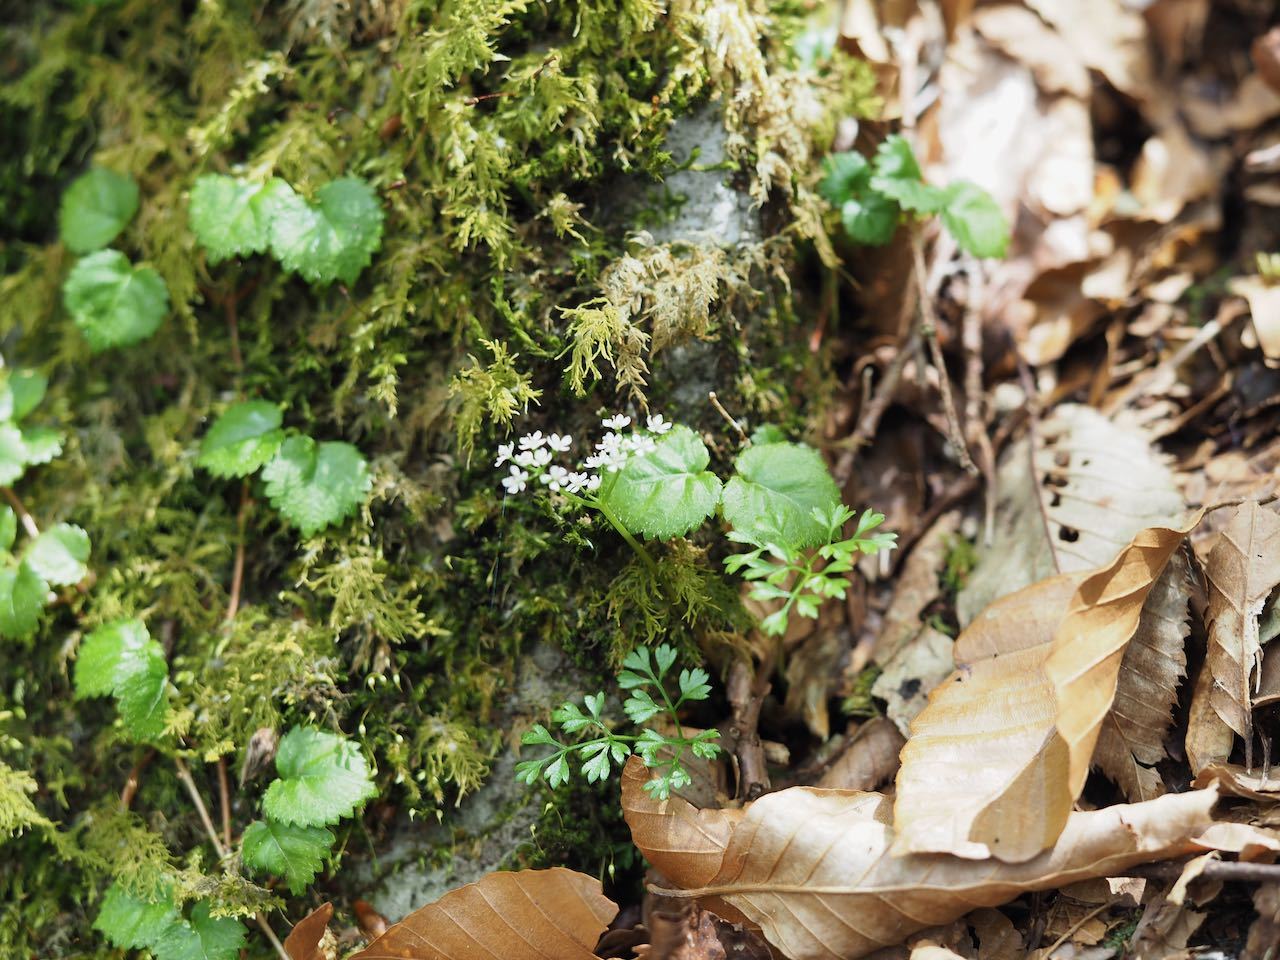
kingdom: Plantae
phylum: Tracheophyta
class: Magnoliopsida
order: Apiales
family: Apiaceae
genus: Aegopodium
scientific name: Aegopodium decumbens
